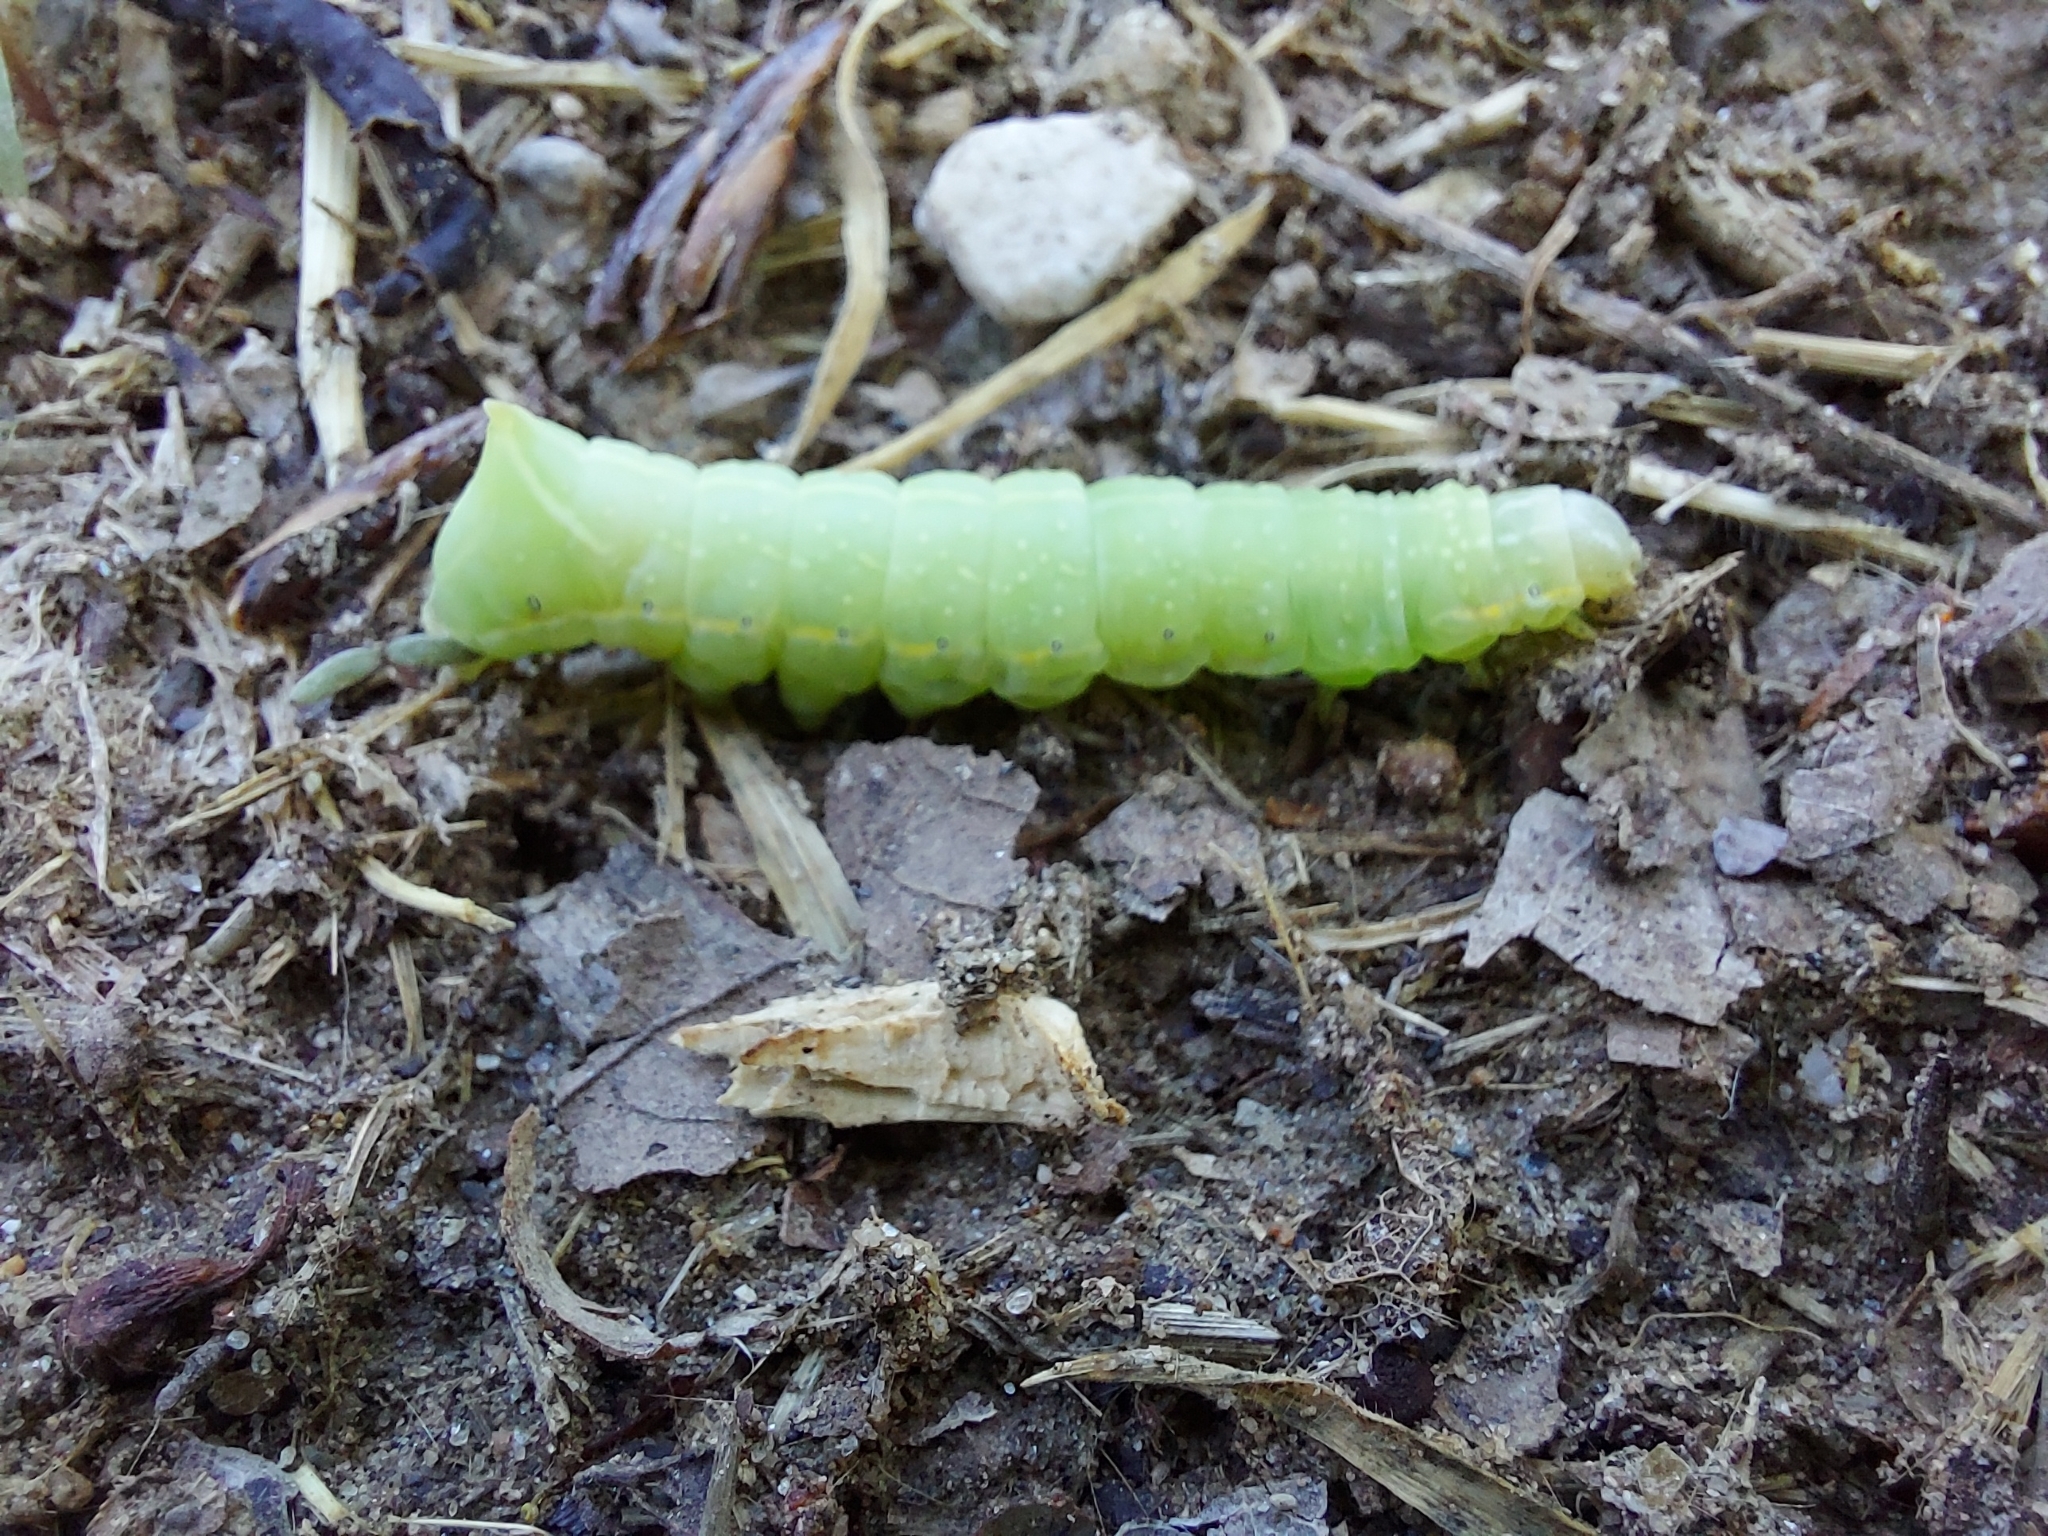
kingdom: Animalia
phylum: Arthropoda
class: Insecta
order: Lepidoptera
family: Noctuidae
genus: Amphipyra
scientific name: Amphipyra pyramidea
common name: Copper underwing
